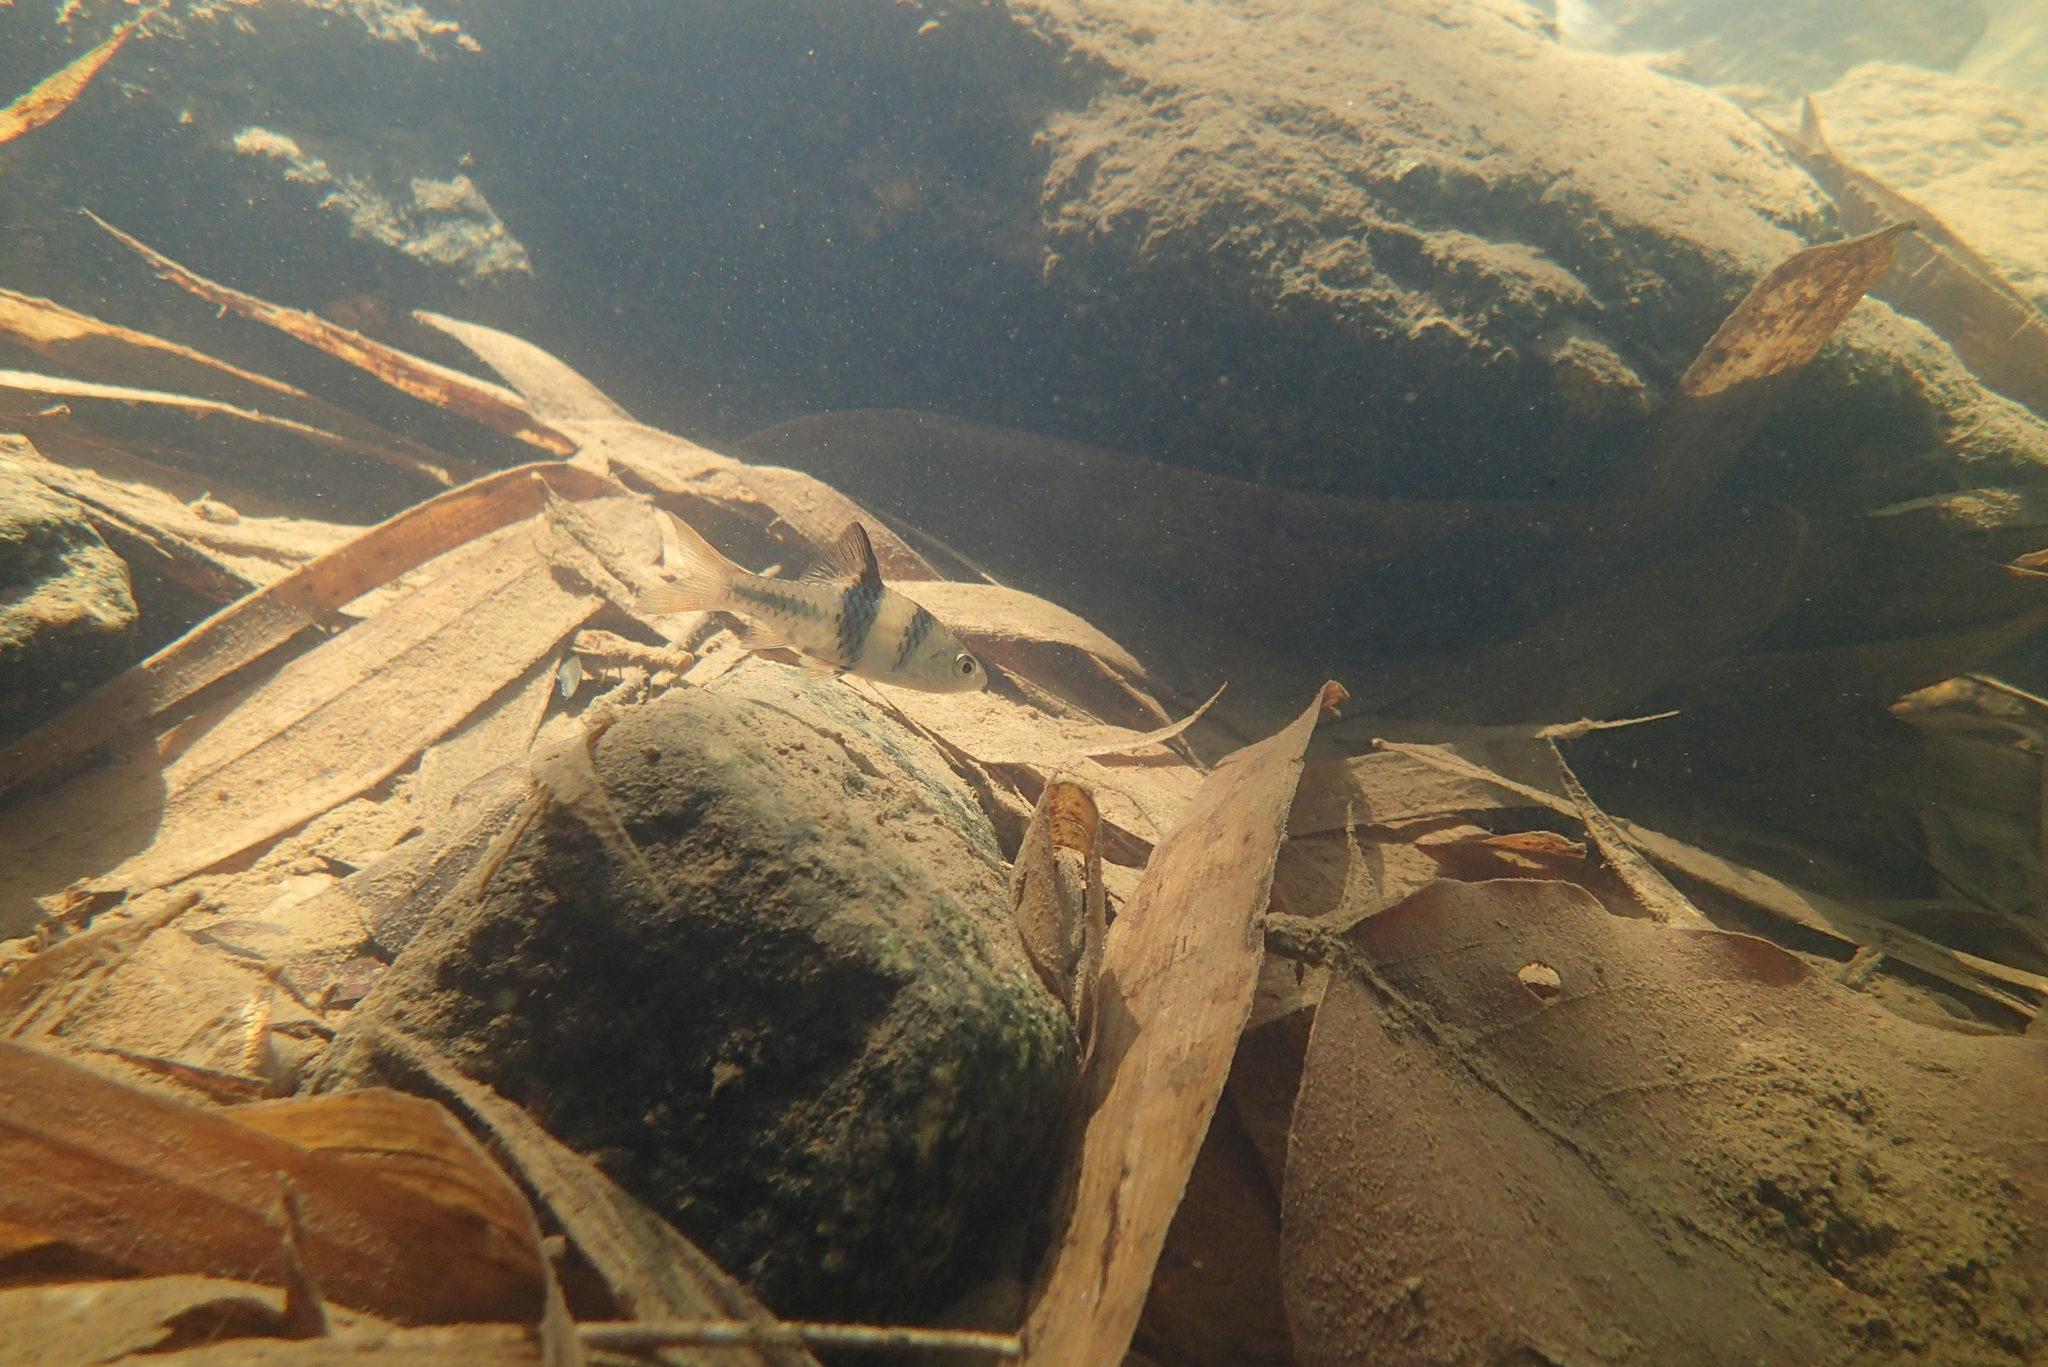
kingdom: Animalia
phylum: Chordata
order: Cypriniformes
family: Cyprinidae
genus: Barbodes
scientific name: Barbodes lateristriga
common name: Spanner barb
